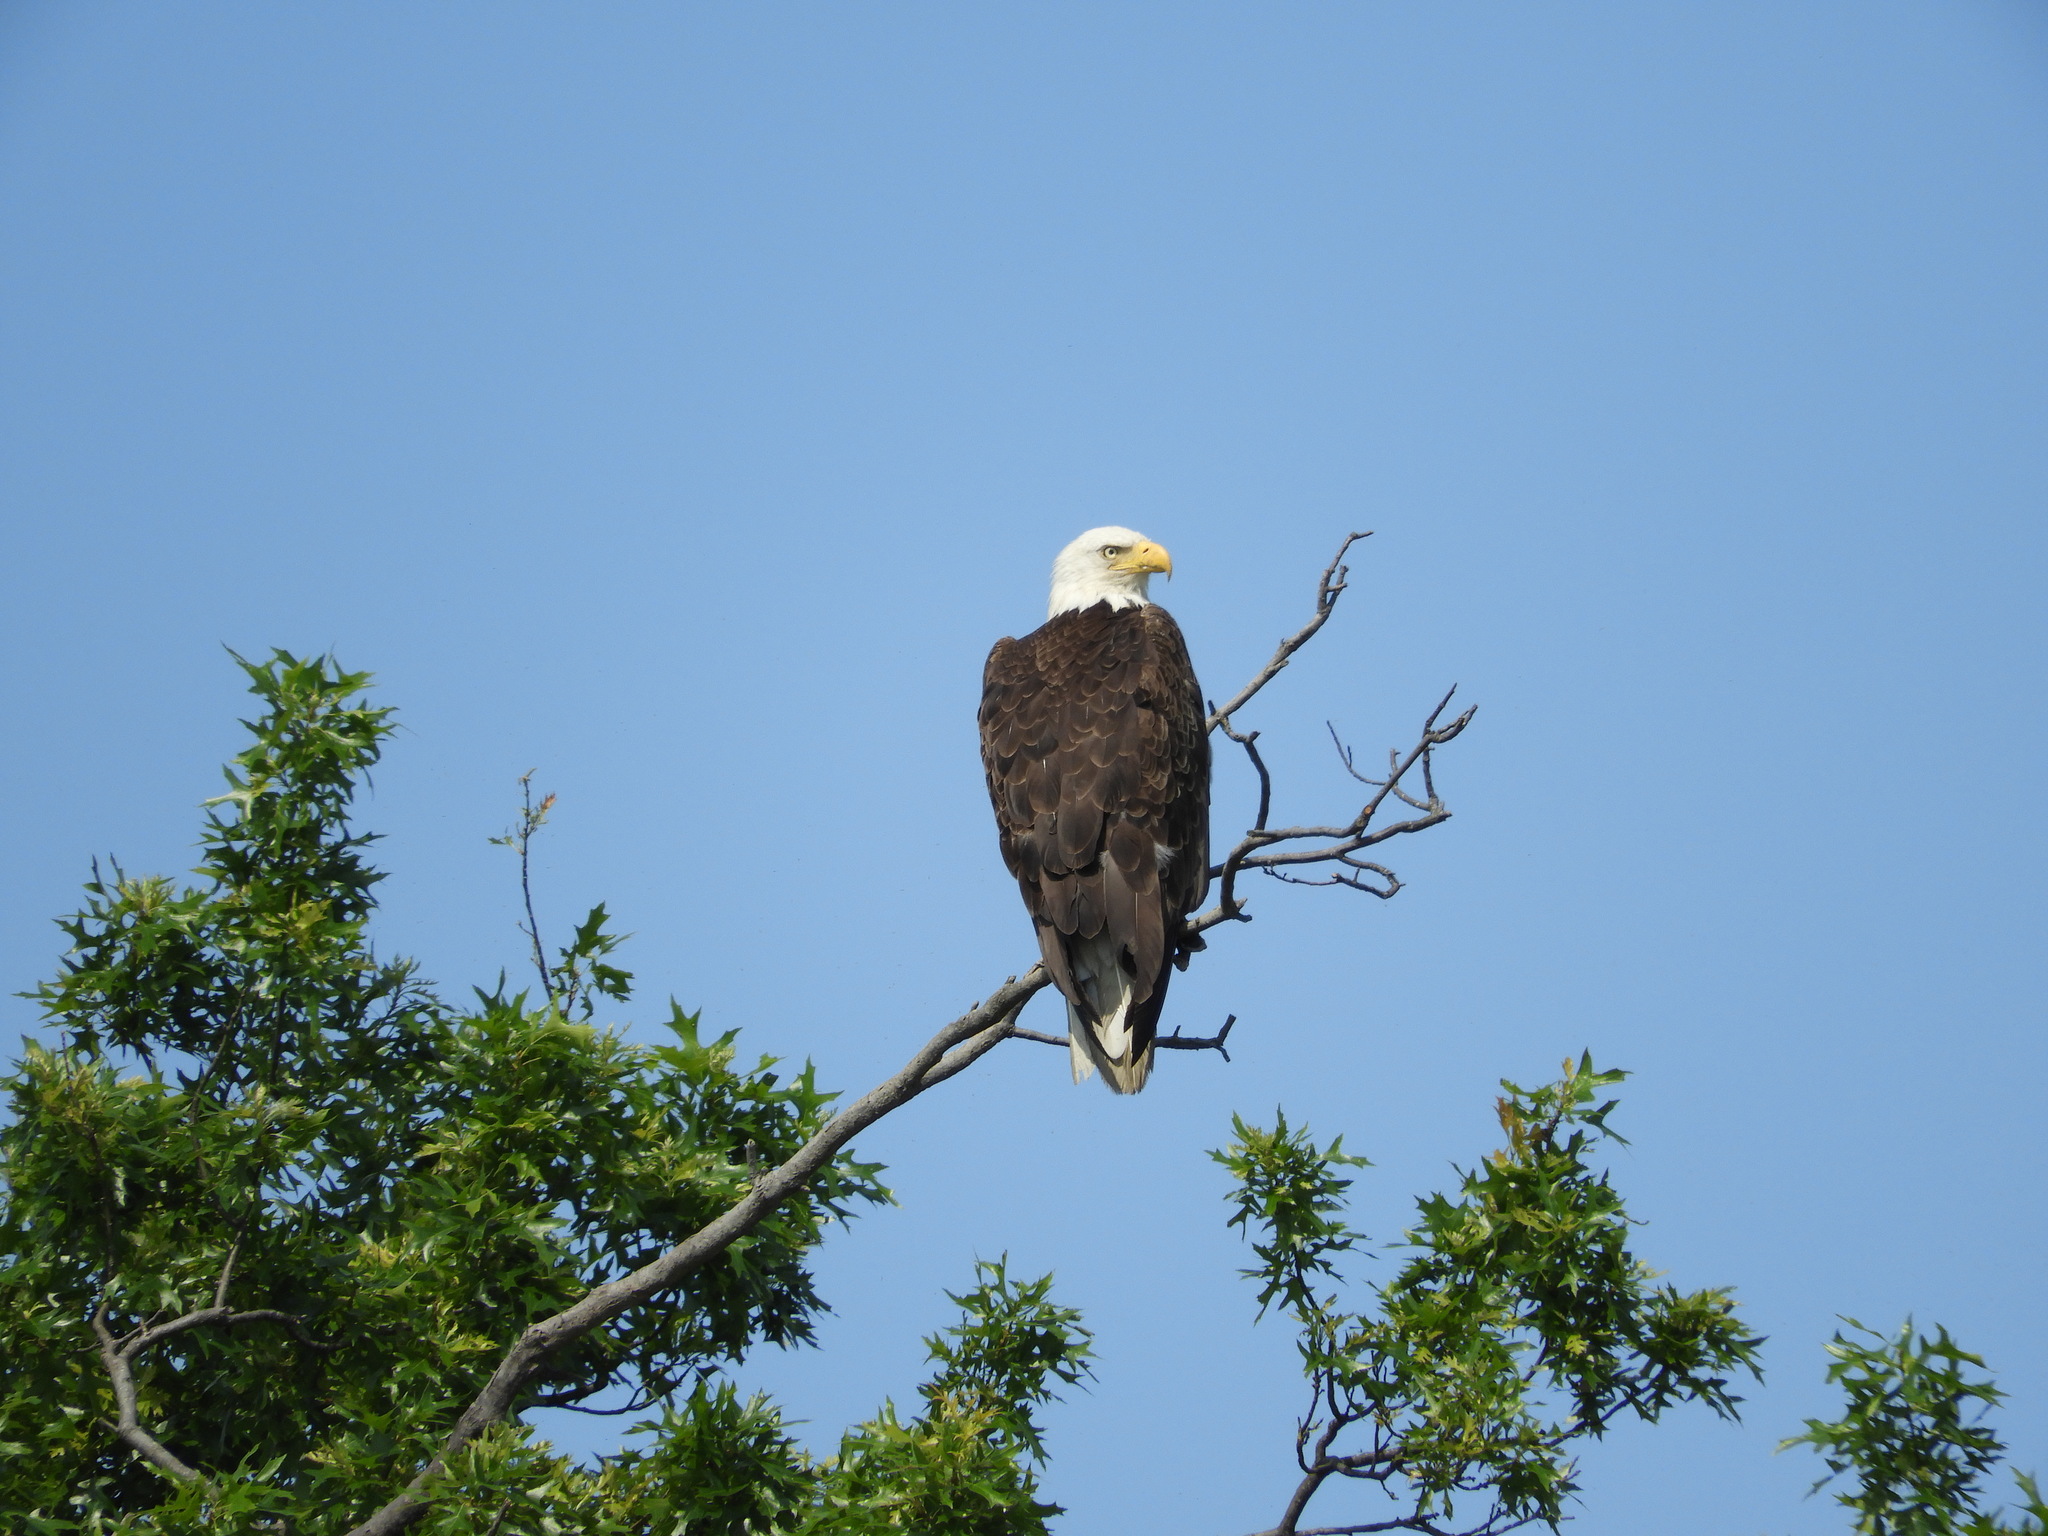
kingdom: Animalia
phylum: Chordata
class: Aves
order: Accipitriformes
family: Accipitridae
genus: Haliaeetus
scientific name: Haliaeetus leucocephalus
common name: Bald eagle
